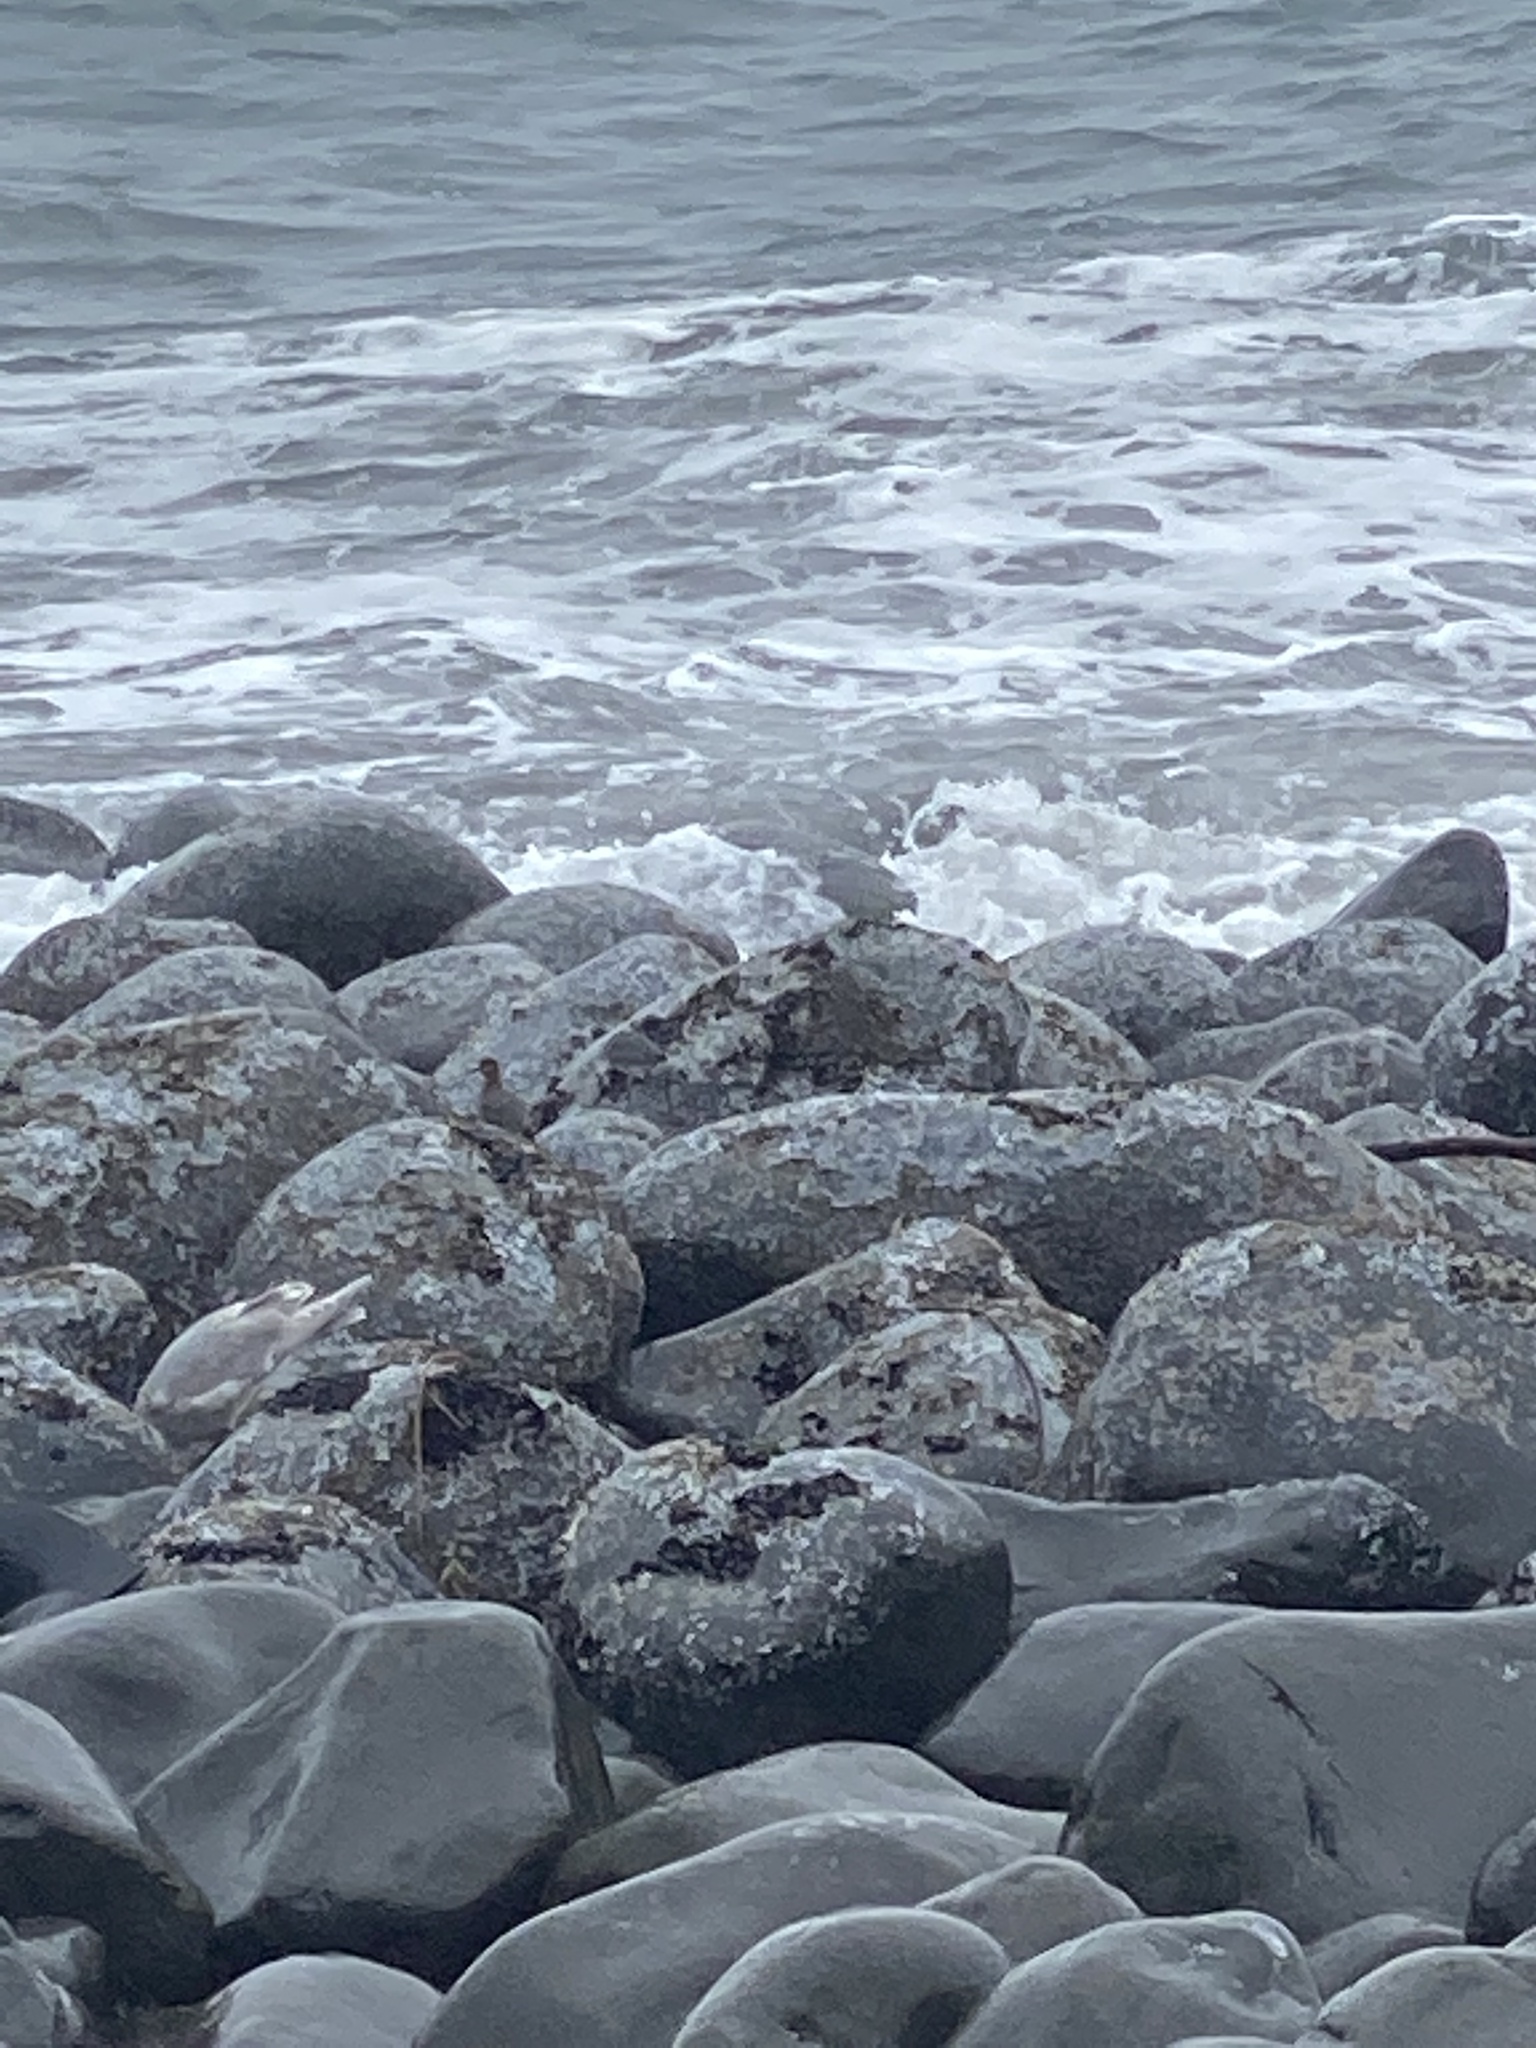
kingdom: Animalia
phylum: Chordata
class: Aves
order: Charadriiformes
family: Scolopacidae
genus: Calidris
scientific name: Calidris virgata
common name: Surfbird
